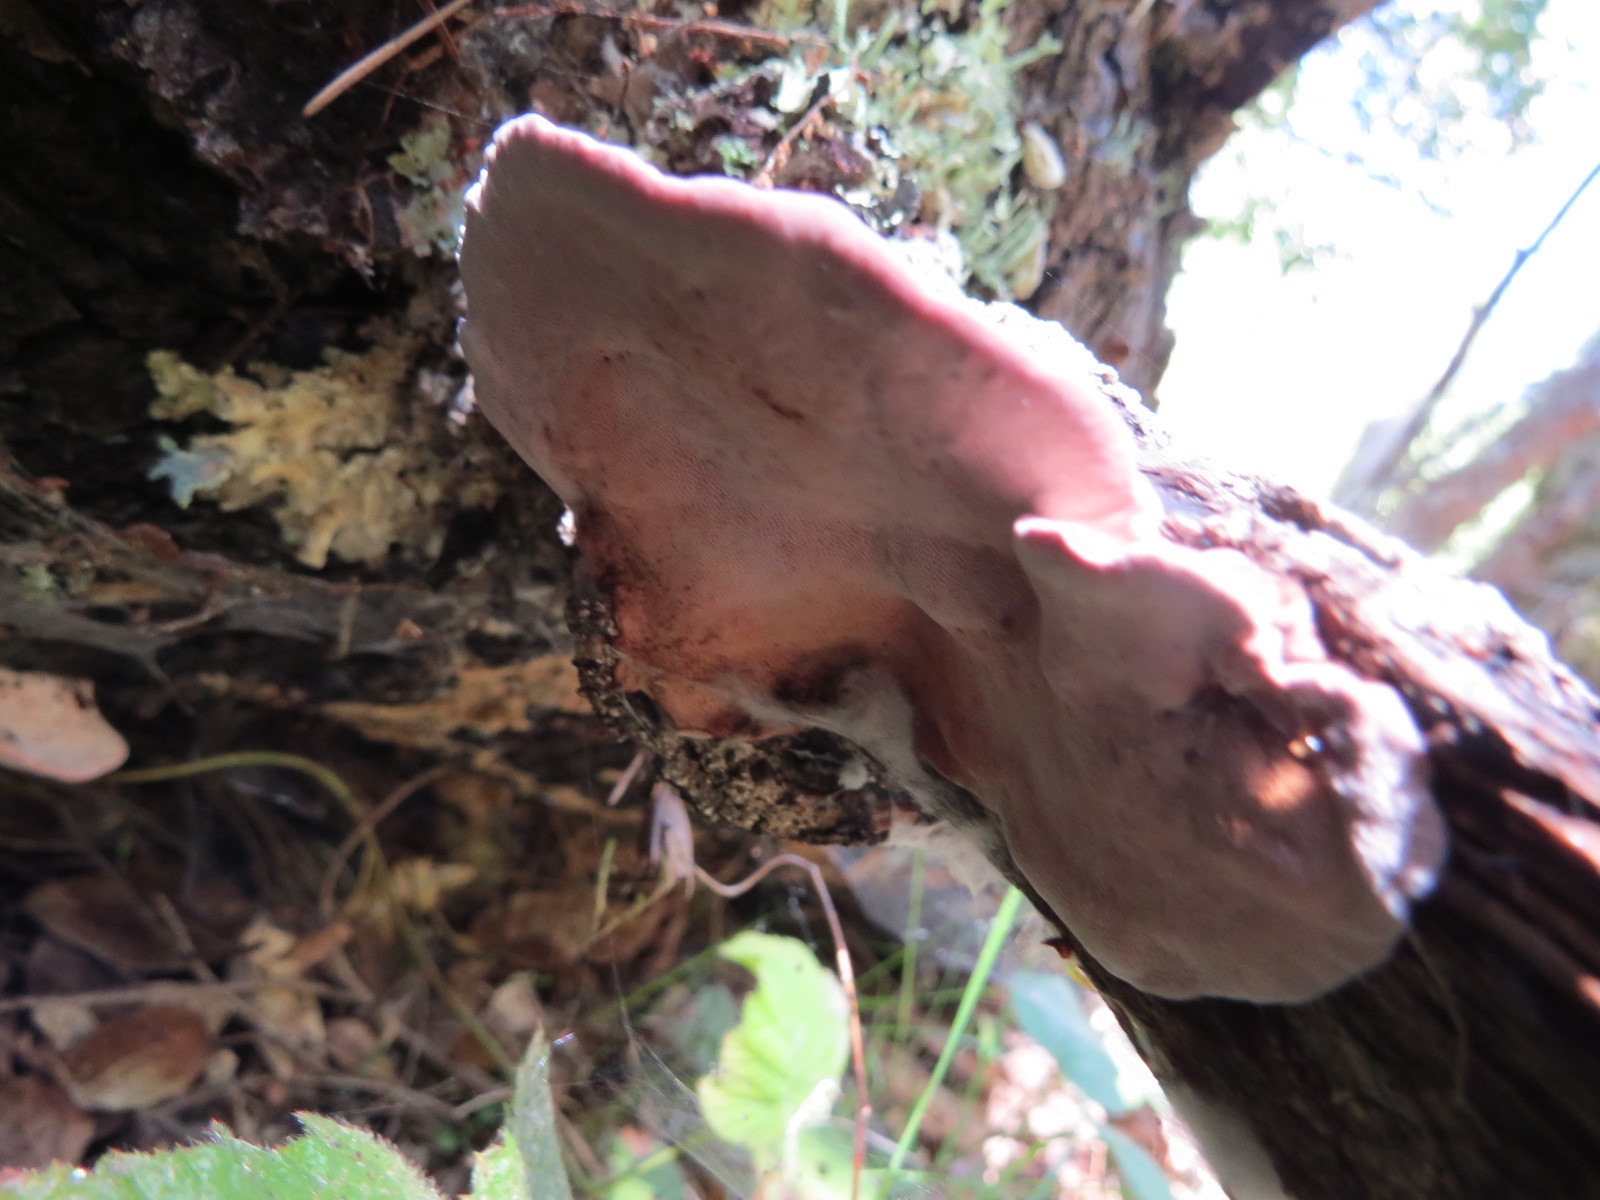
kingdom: Fungi
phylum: Basidiomycota
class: Agaricomycetes
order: Polyporales
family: Fomitopsidaceae
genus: Rhodofomes
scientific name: Rhodofomes cajanderi
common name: Rosy conk
